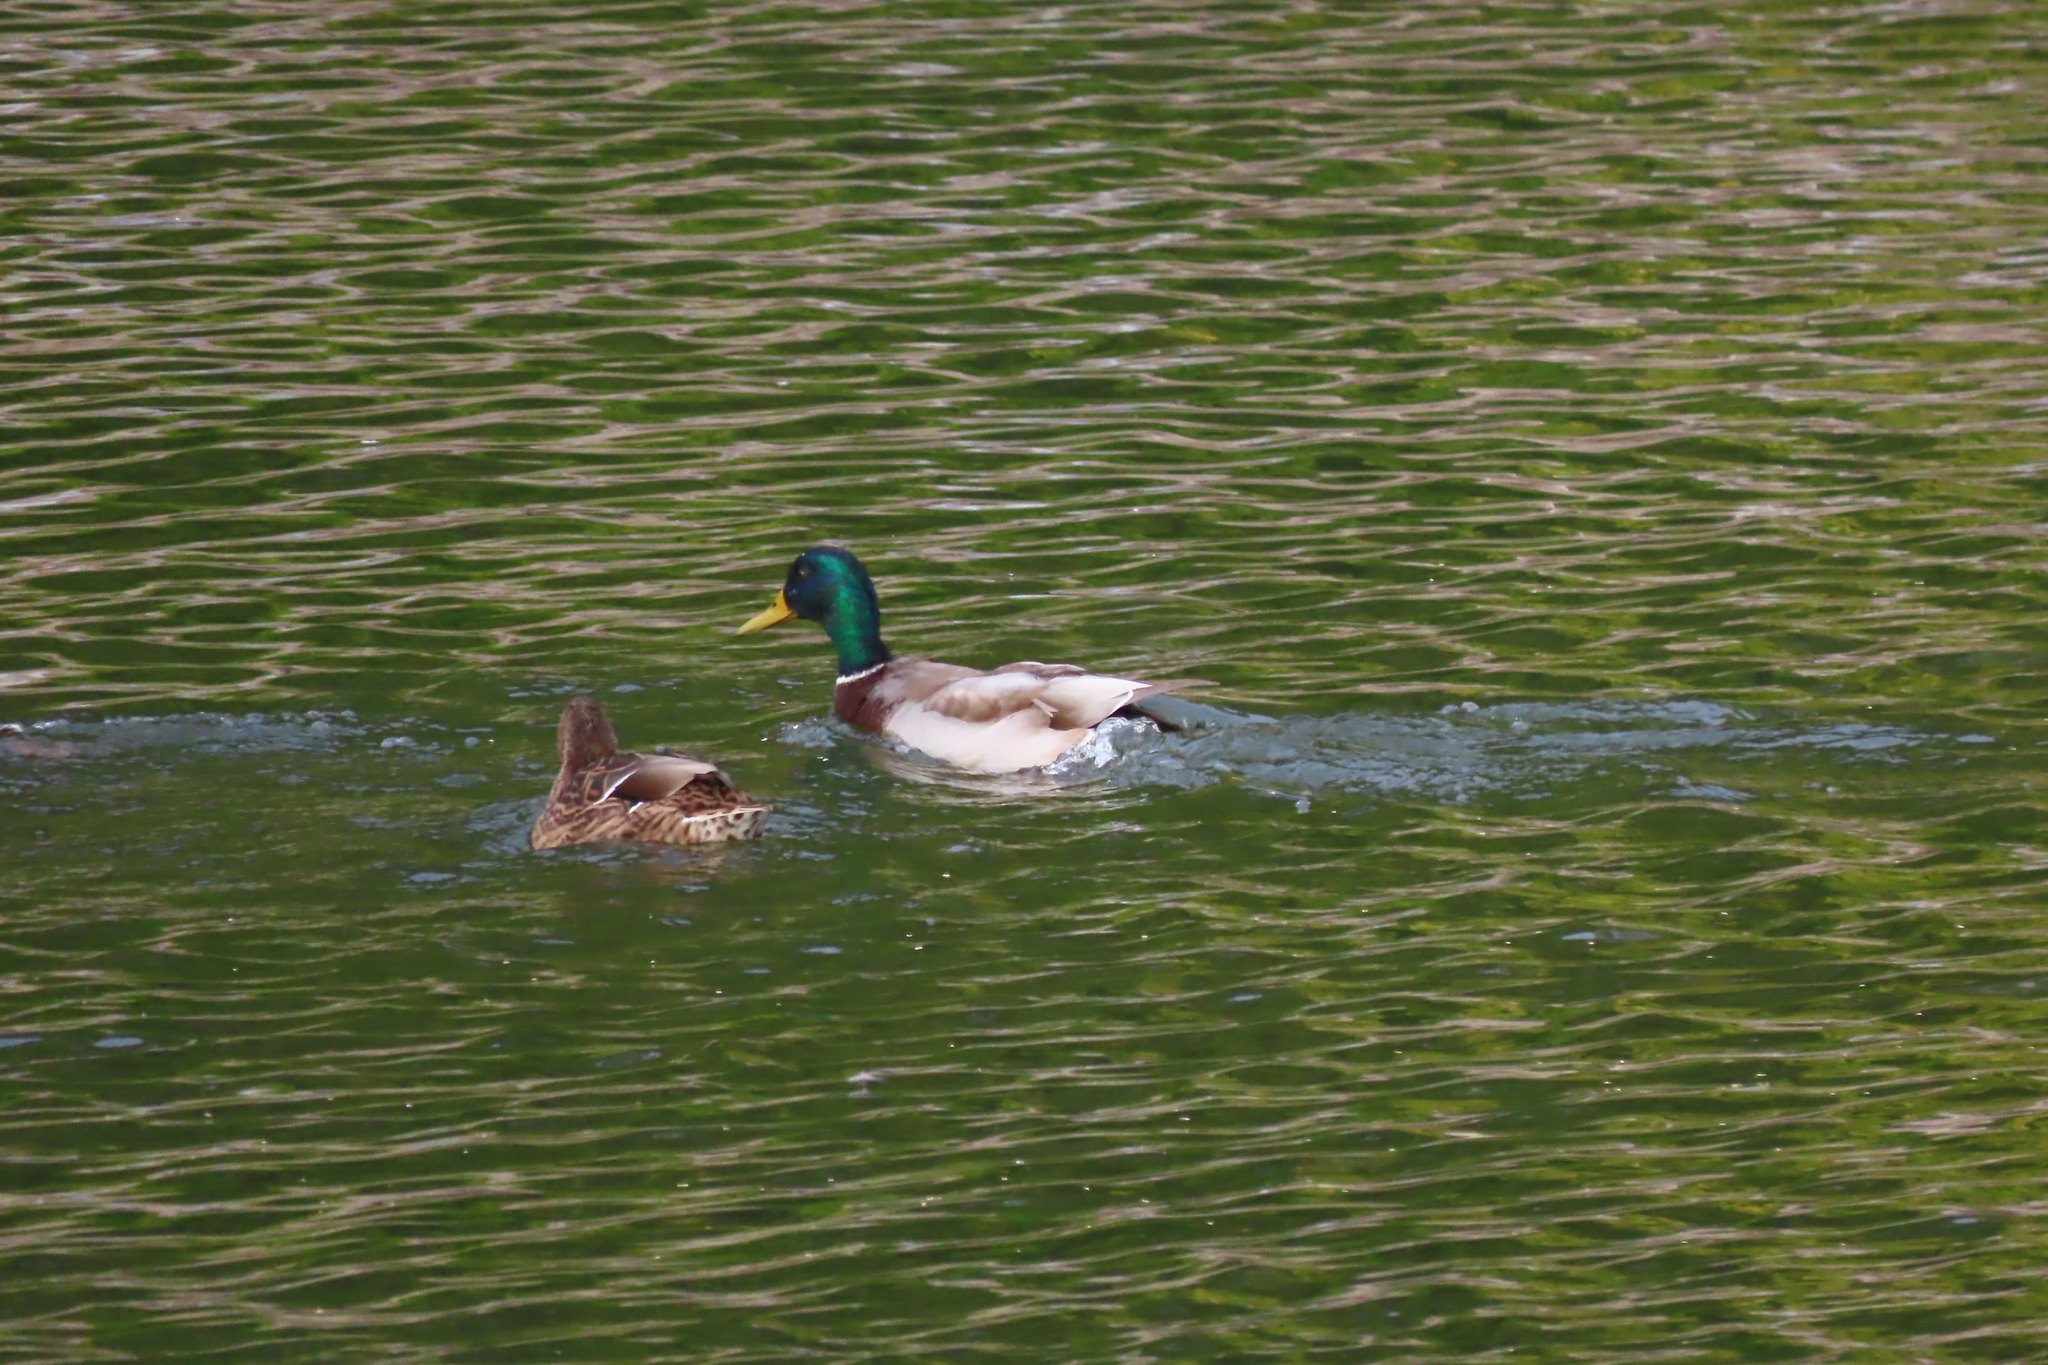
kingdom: Animalia
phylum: Chordata
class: Aves
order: Anseriformes
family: Anatidae
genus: Anas
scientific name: Anas platyrhynchos
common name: Mallard
